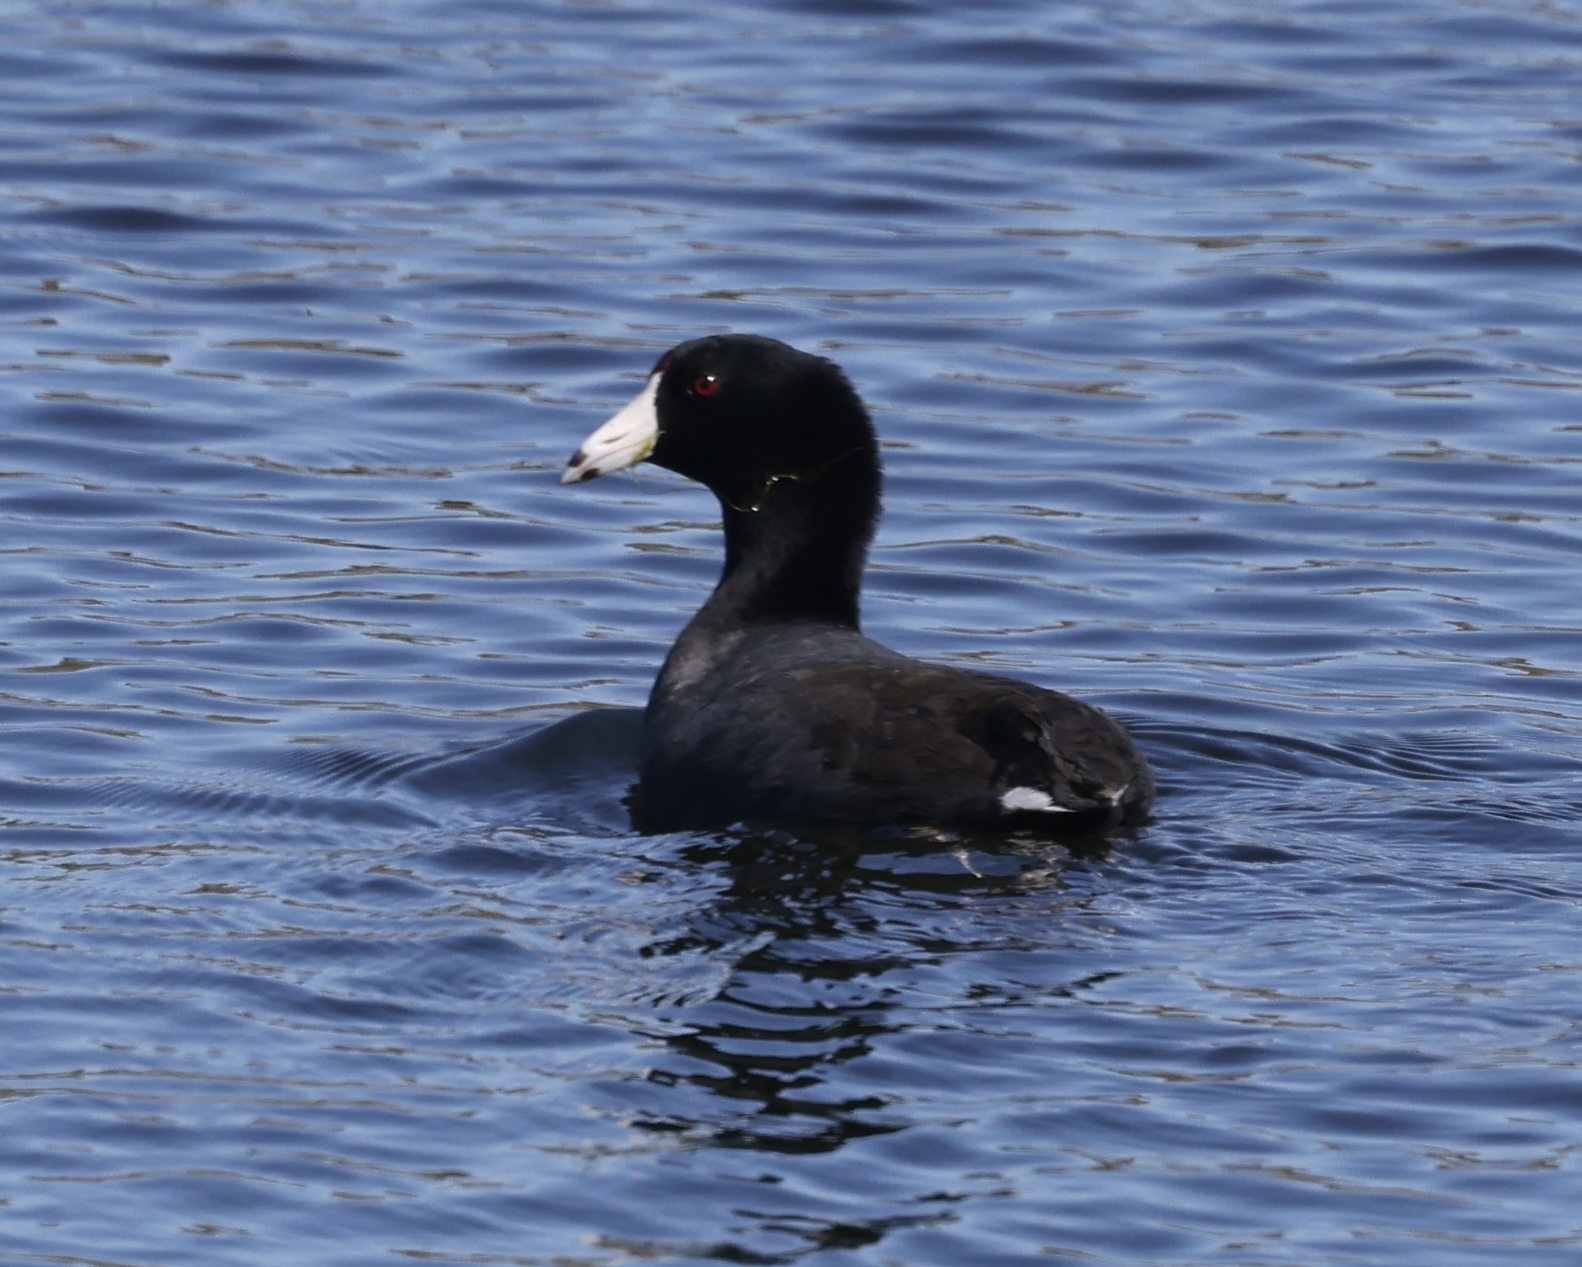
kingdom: Animalia
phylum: Chordata
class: Aves
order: Gruiformes
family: Rallidae
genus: Fulica
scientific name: Fulica americana
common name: American coot
